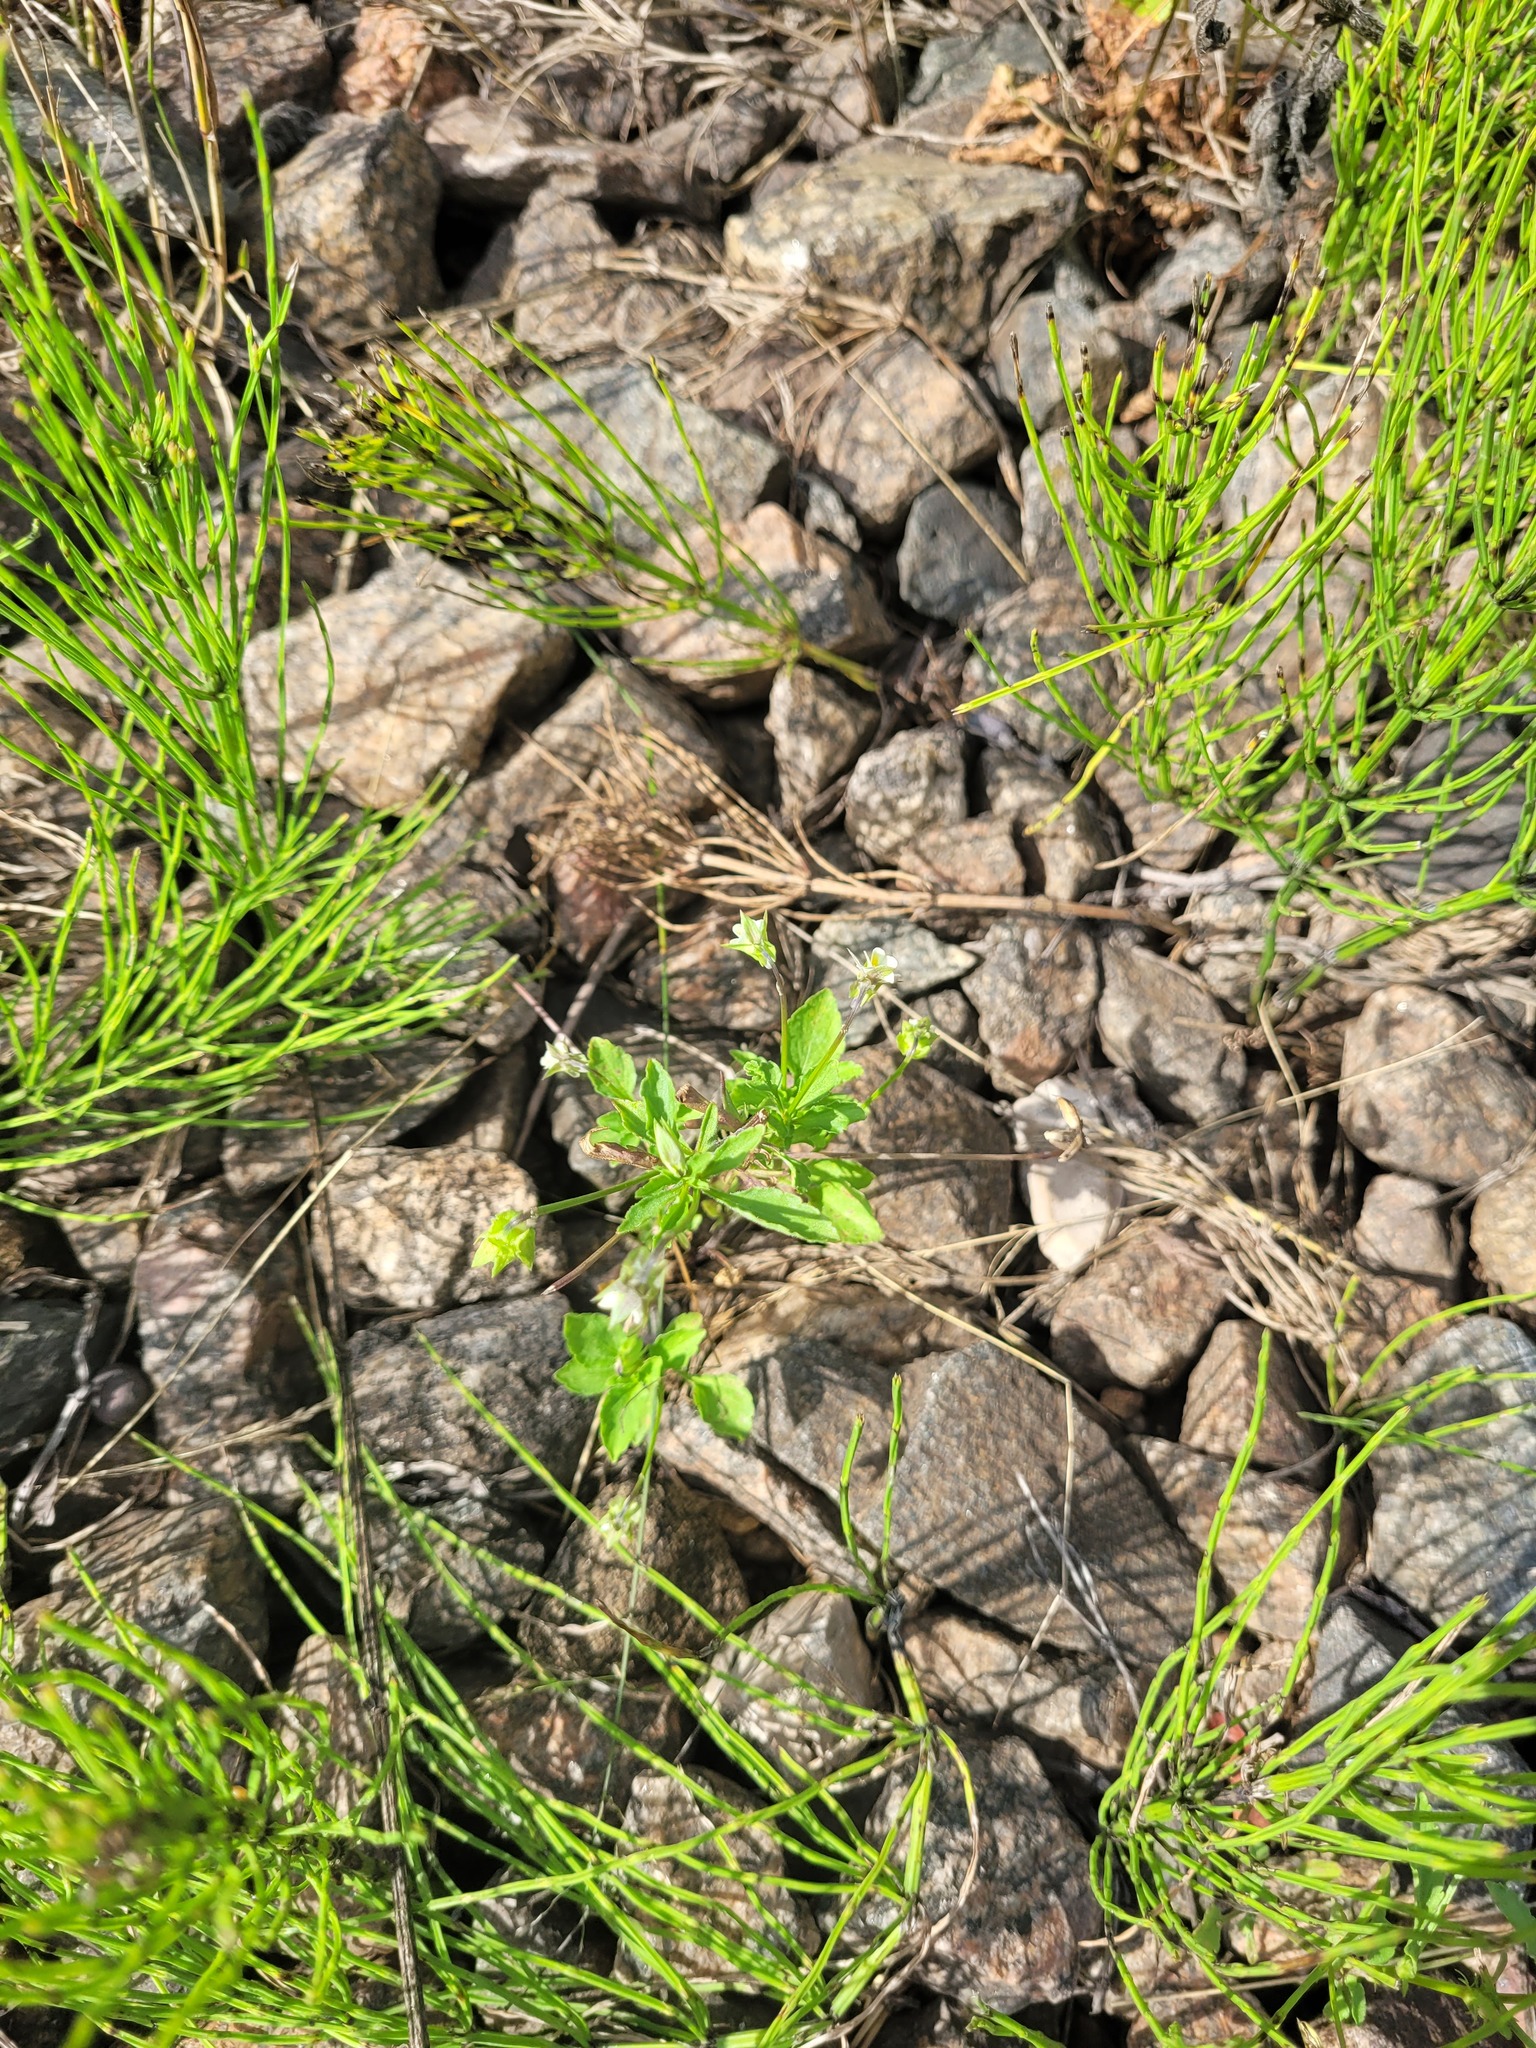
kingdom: Plantae
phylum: Tracheophyta
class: Magnoliopsida
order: Malpighiales
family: Violaceae
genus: Viola
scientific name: Viola arvensis
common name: Field pansy
